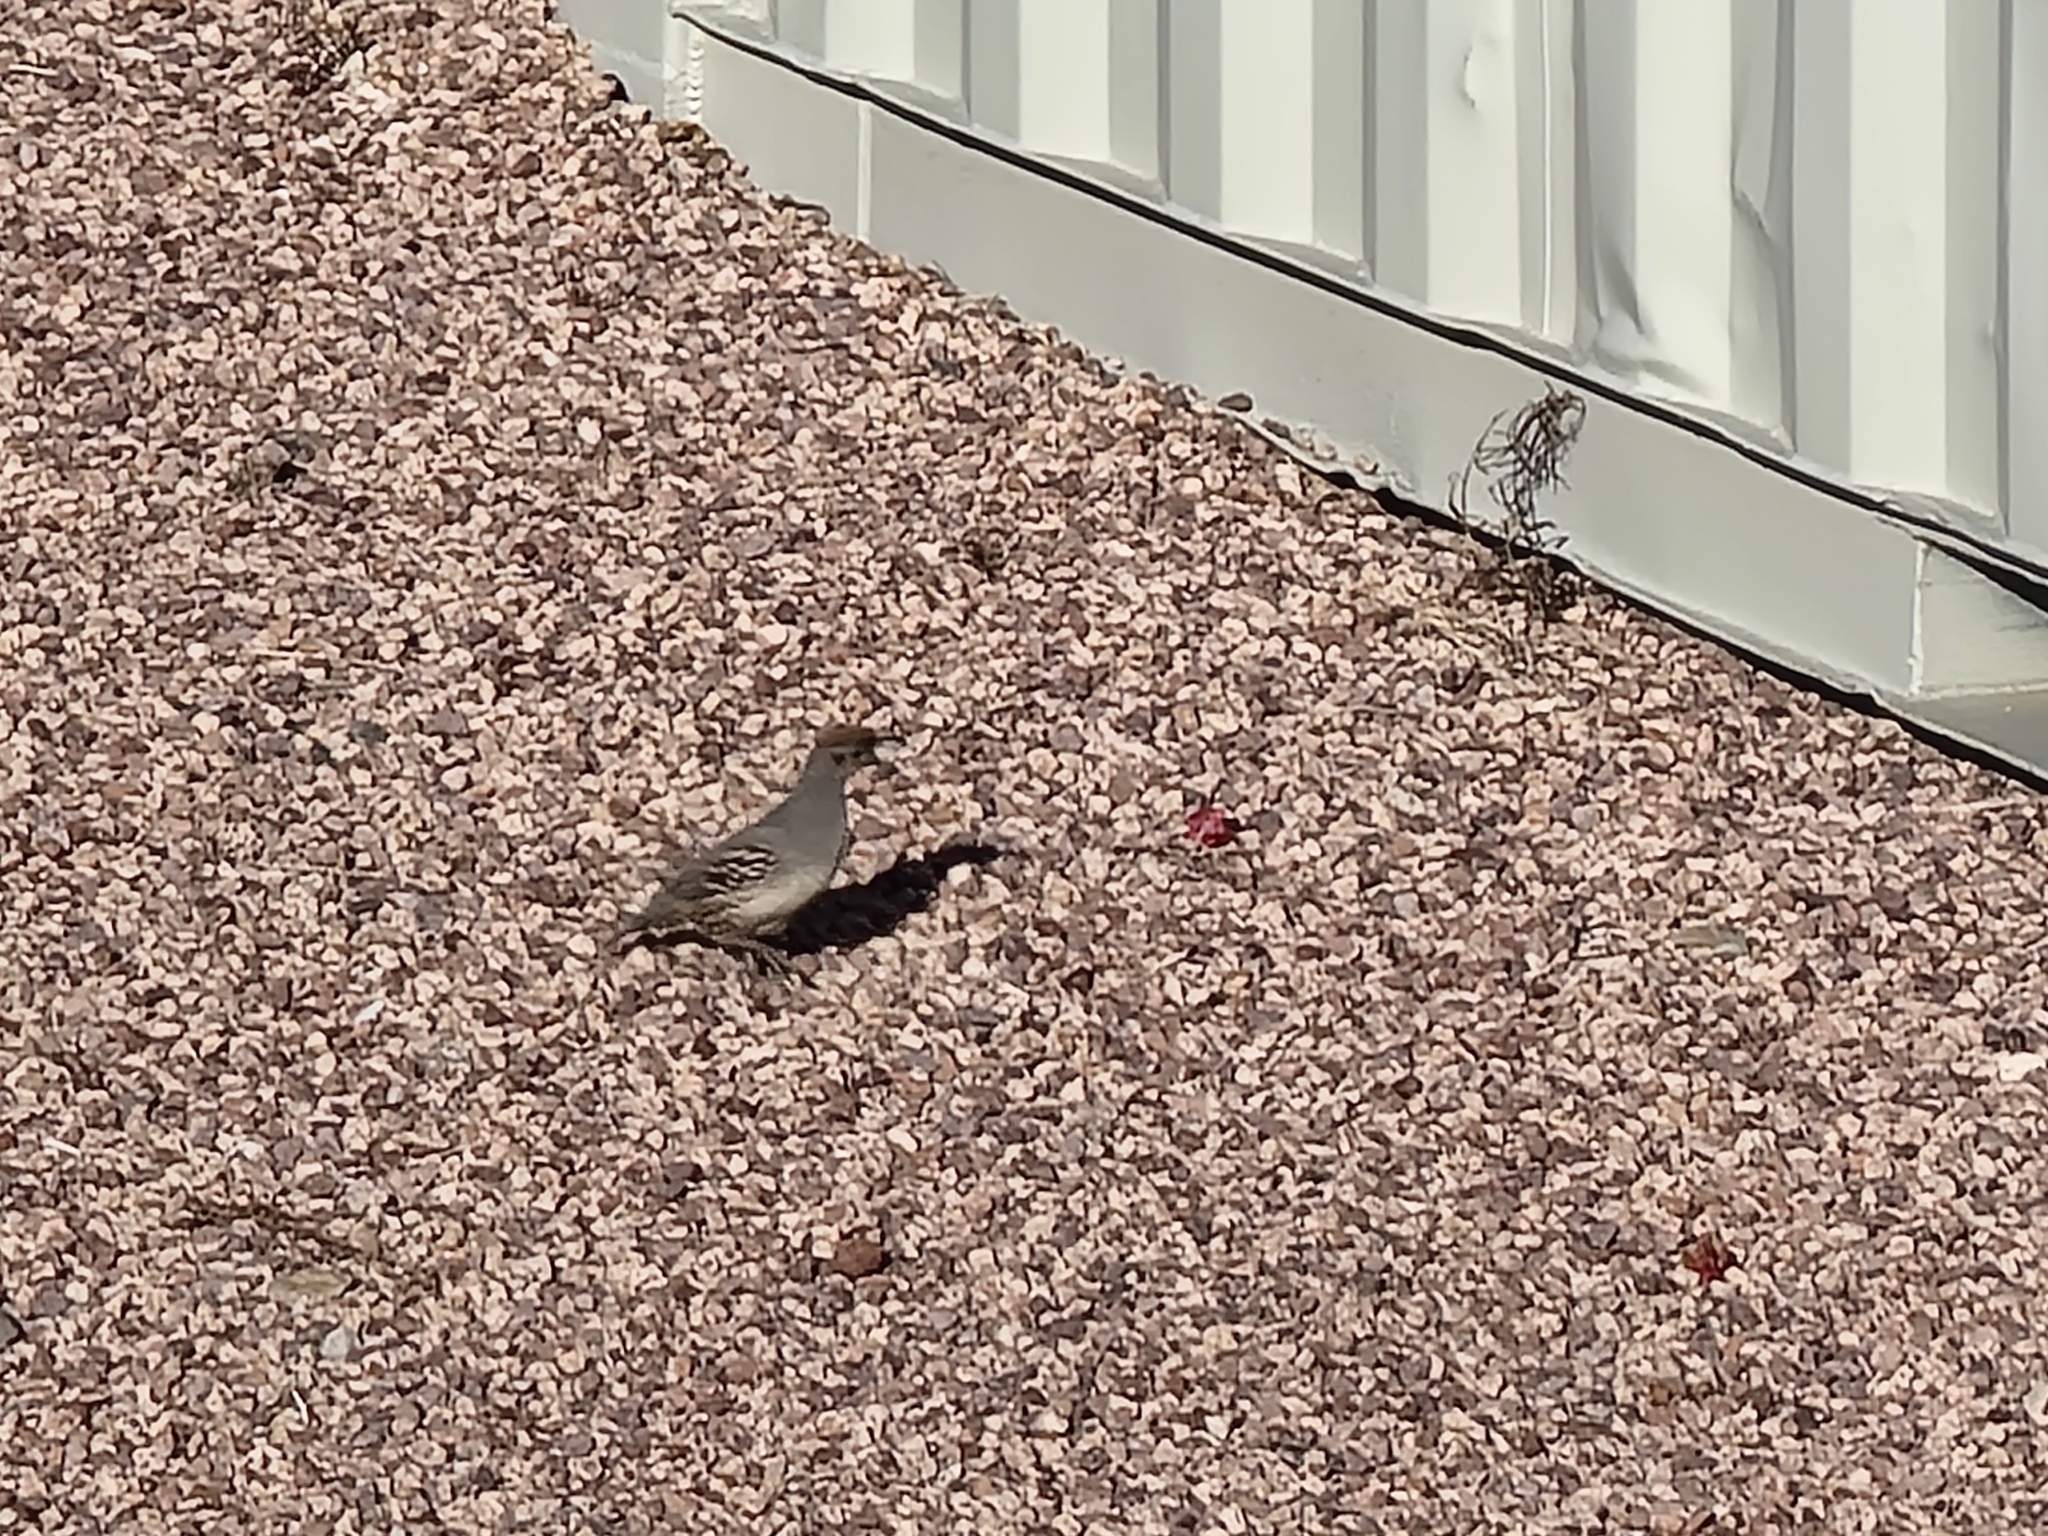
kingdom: Animalia
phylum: Chordata
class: Aves
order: Galliformes
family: Odontophoridae
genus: Callipepla
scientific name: Callipepla gambelii
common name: Gambel's quail
